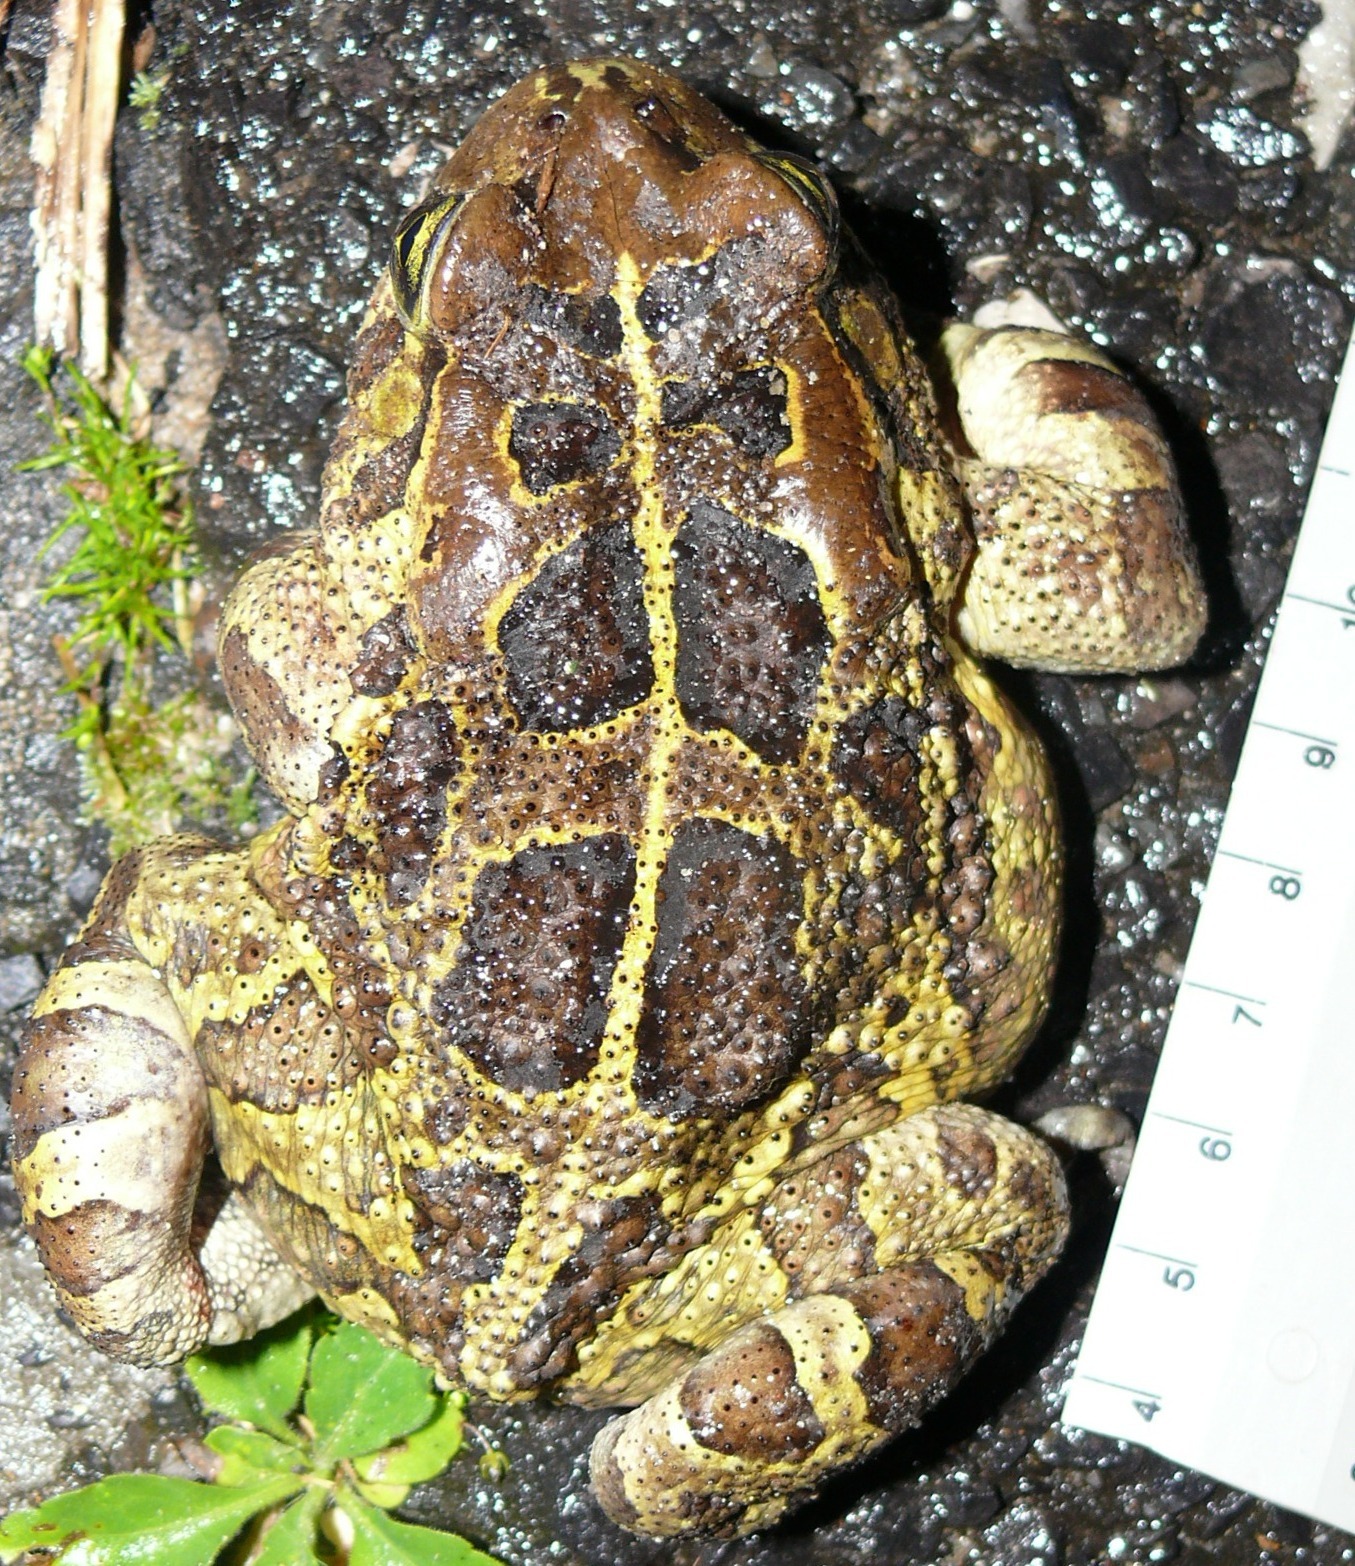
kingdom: Animalia
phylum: Chordata
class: Amphibia
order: Anura
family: Bufonidae
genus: Sclerophrys
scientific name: Sclerophrys pantherina
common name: Panther toad
